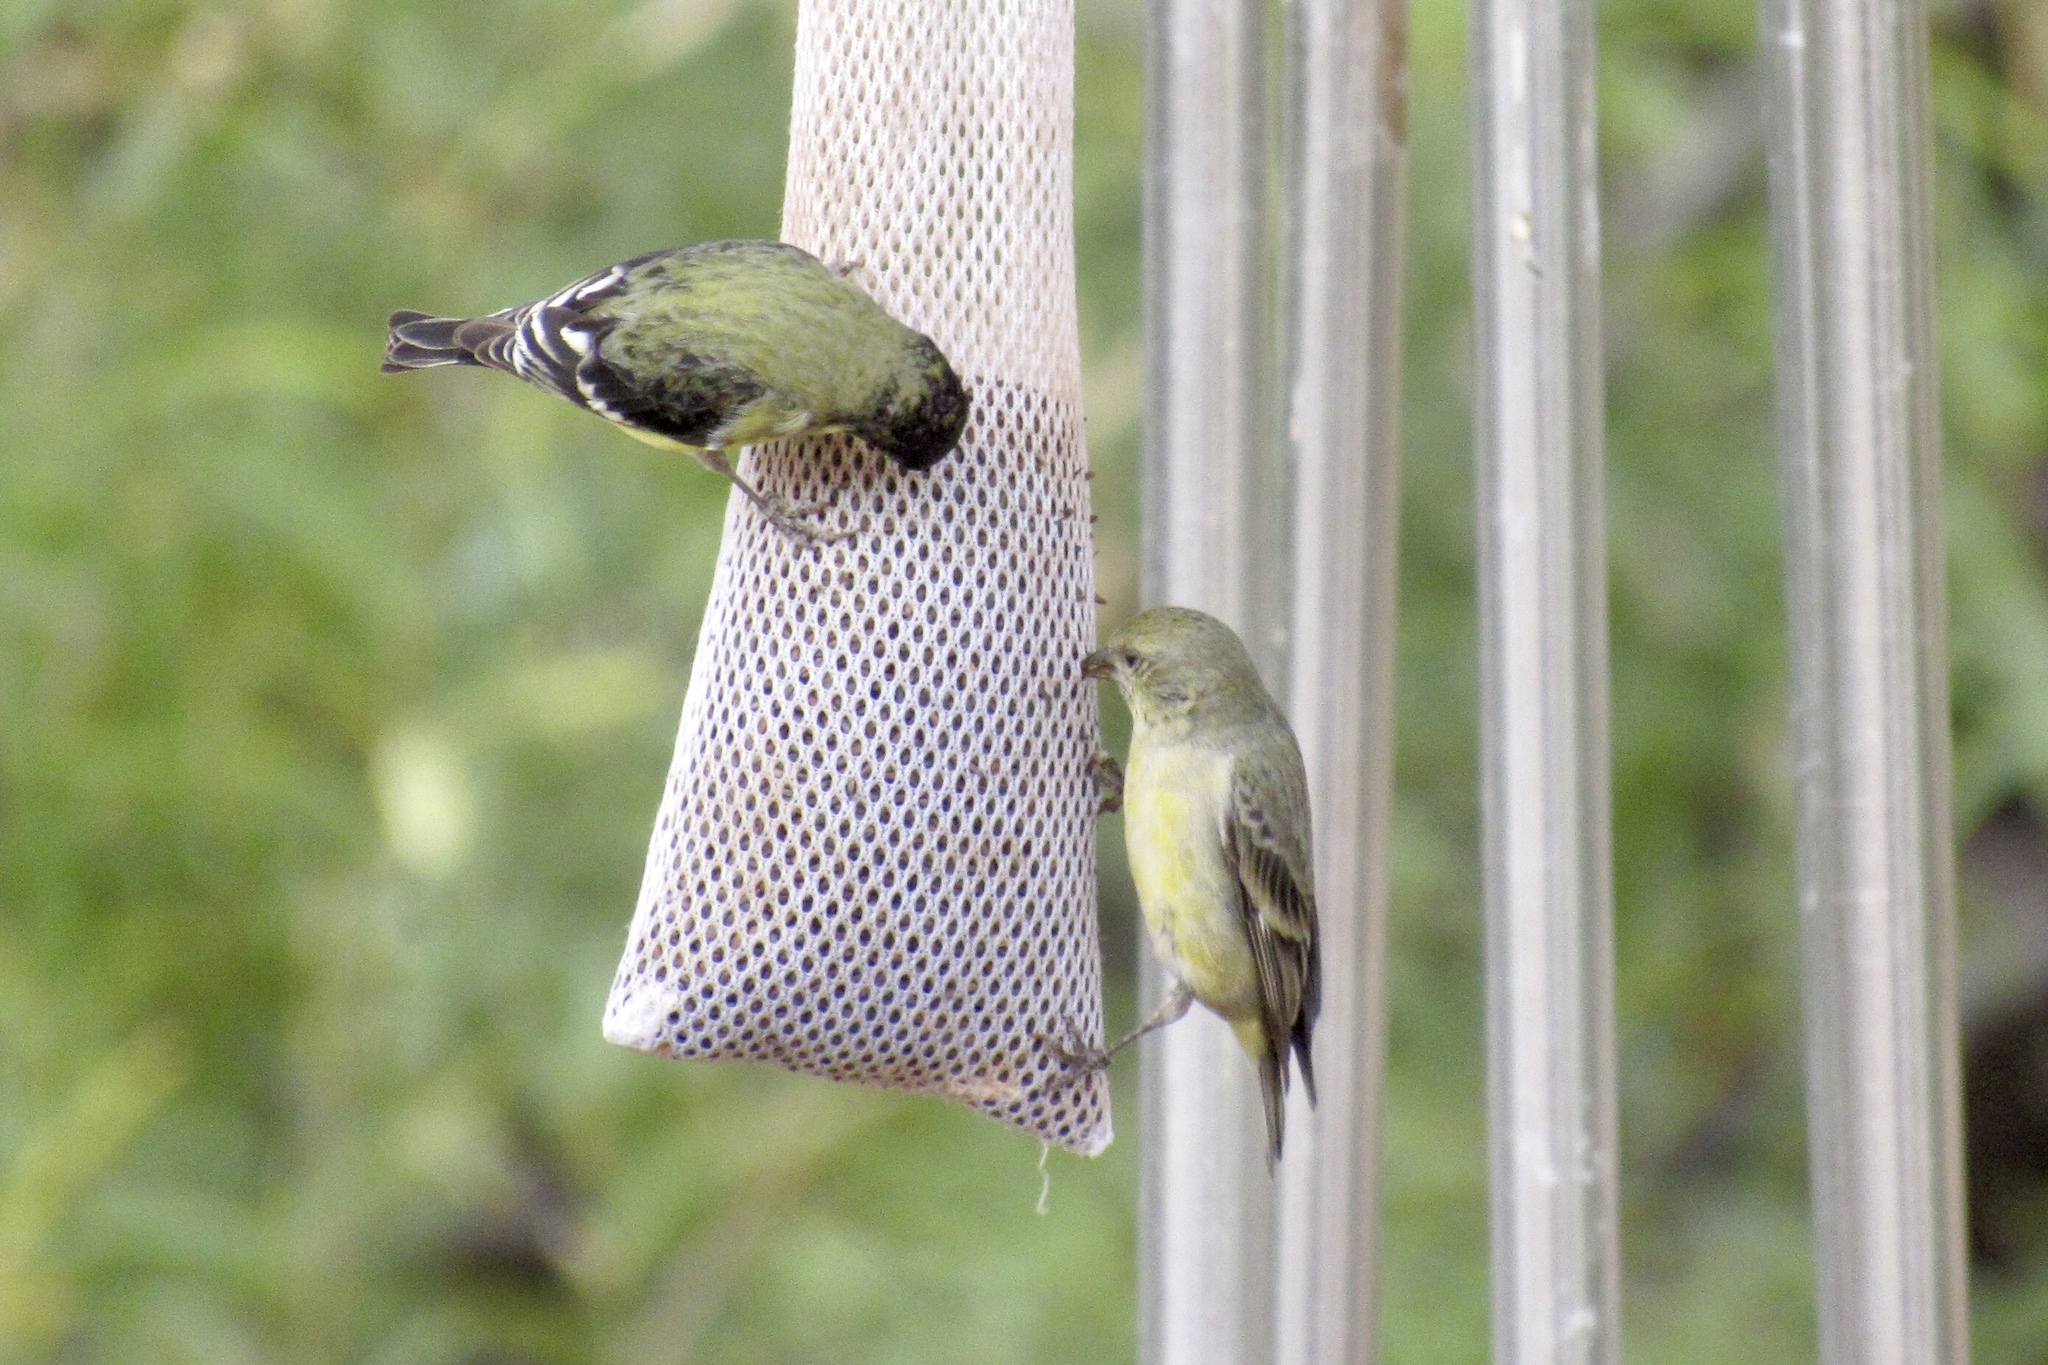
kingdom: Animalia
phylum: Chordata
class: Aves
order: Passeriformes
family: Fringillidae
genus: Spinus
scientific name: Spinus psaltria
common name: Lesser goldfinch
